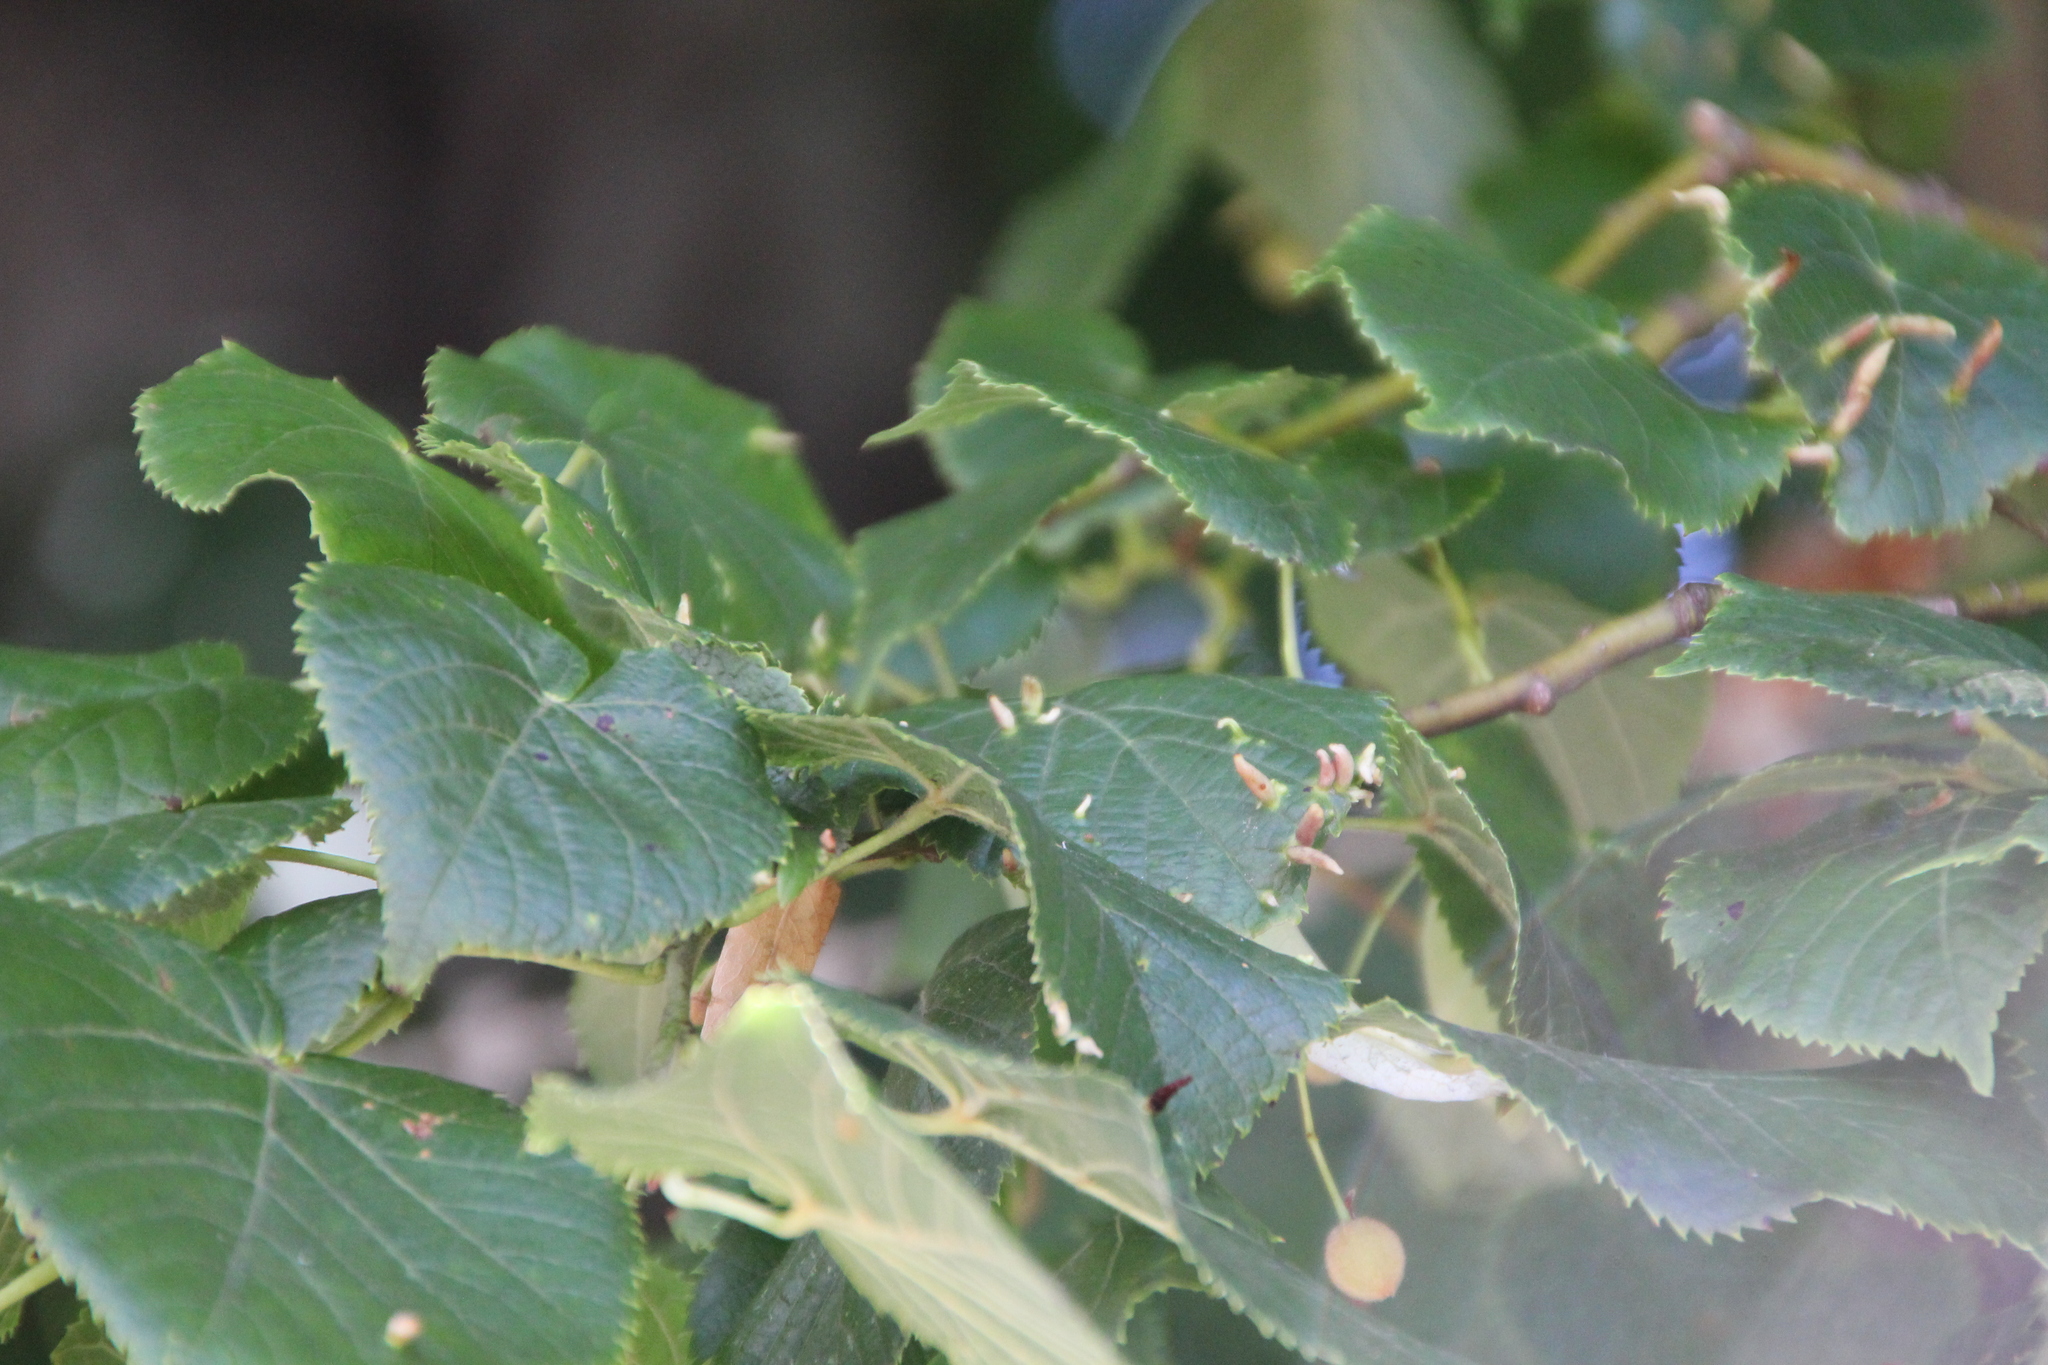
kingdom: Animalia
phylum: Arthropoda
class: Arachnida
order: Trombidiformes
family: Eriophyidae
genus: Eriophyes
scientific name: Eriophyes tiliae
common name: Red nail gall mite
